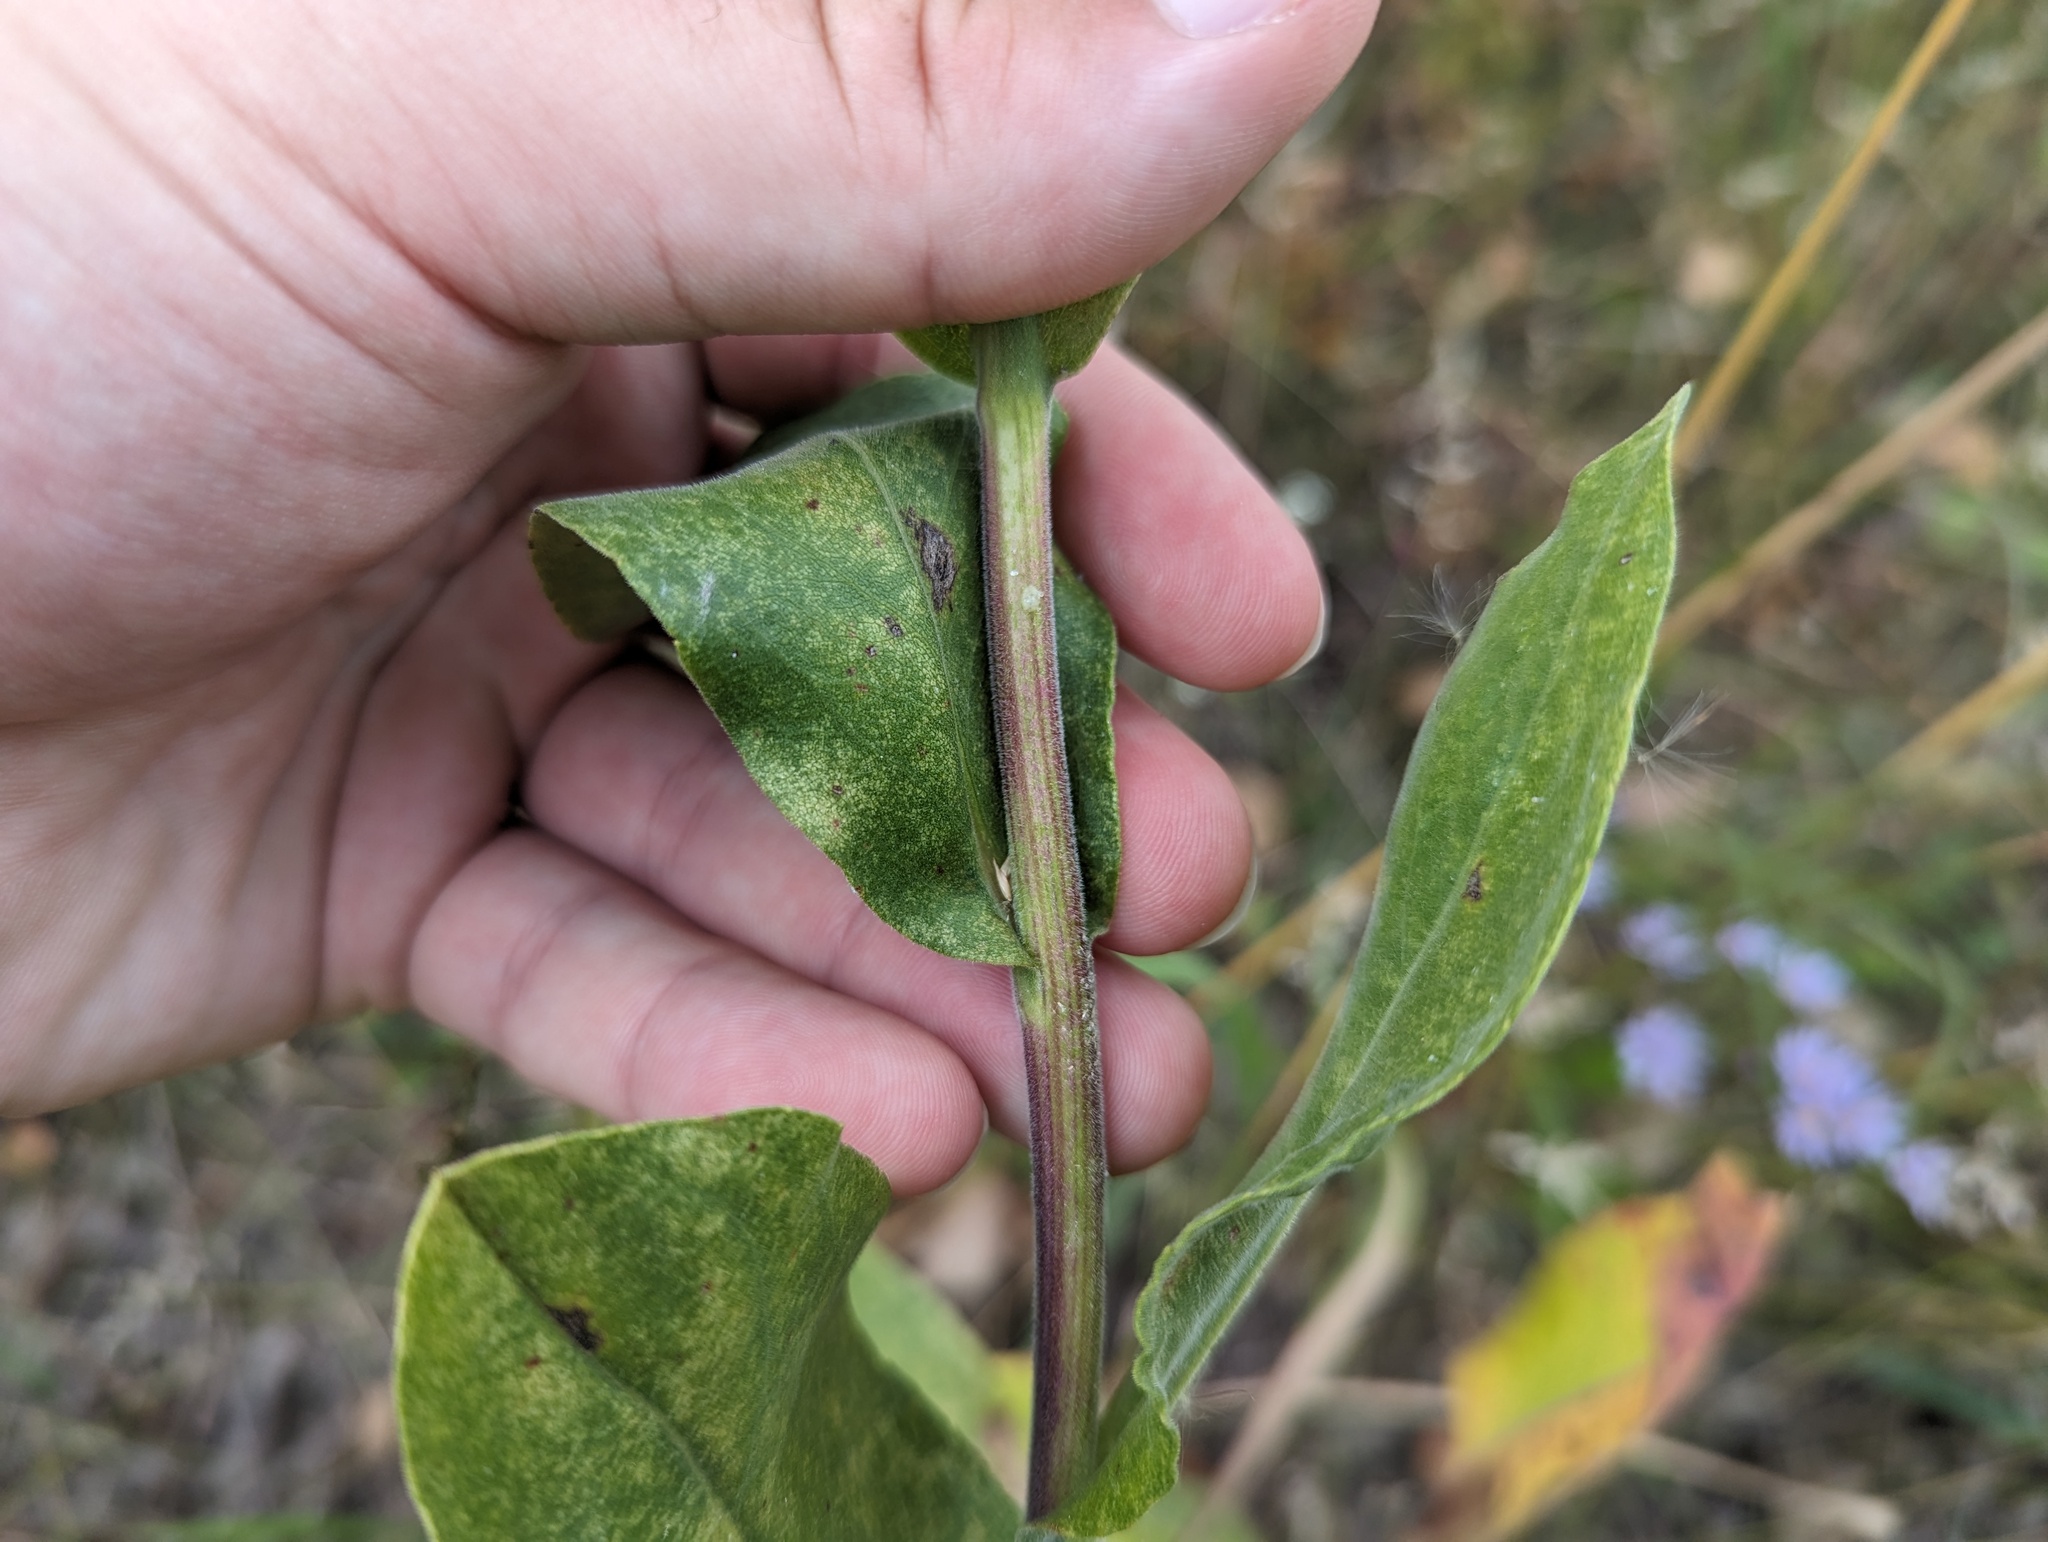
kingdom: Plantae
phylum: Tracheophyta
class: Magnoliopsida
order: Asterales
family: Asteraceae
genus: Solidago
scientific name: Solidago rigida
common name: Rigid goldenrod
